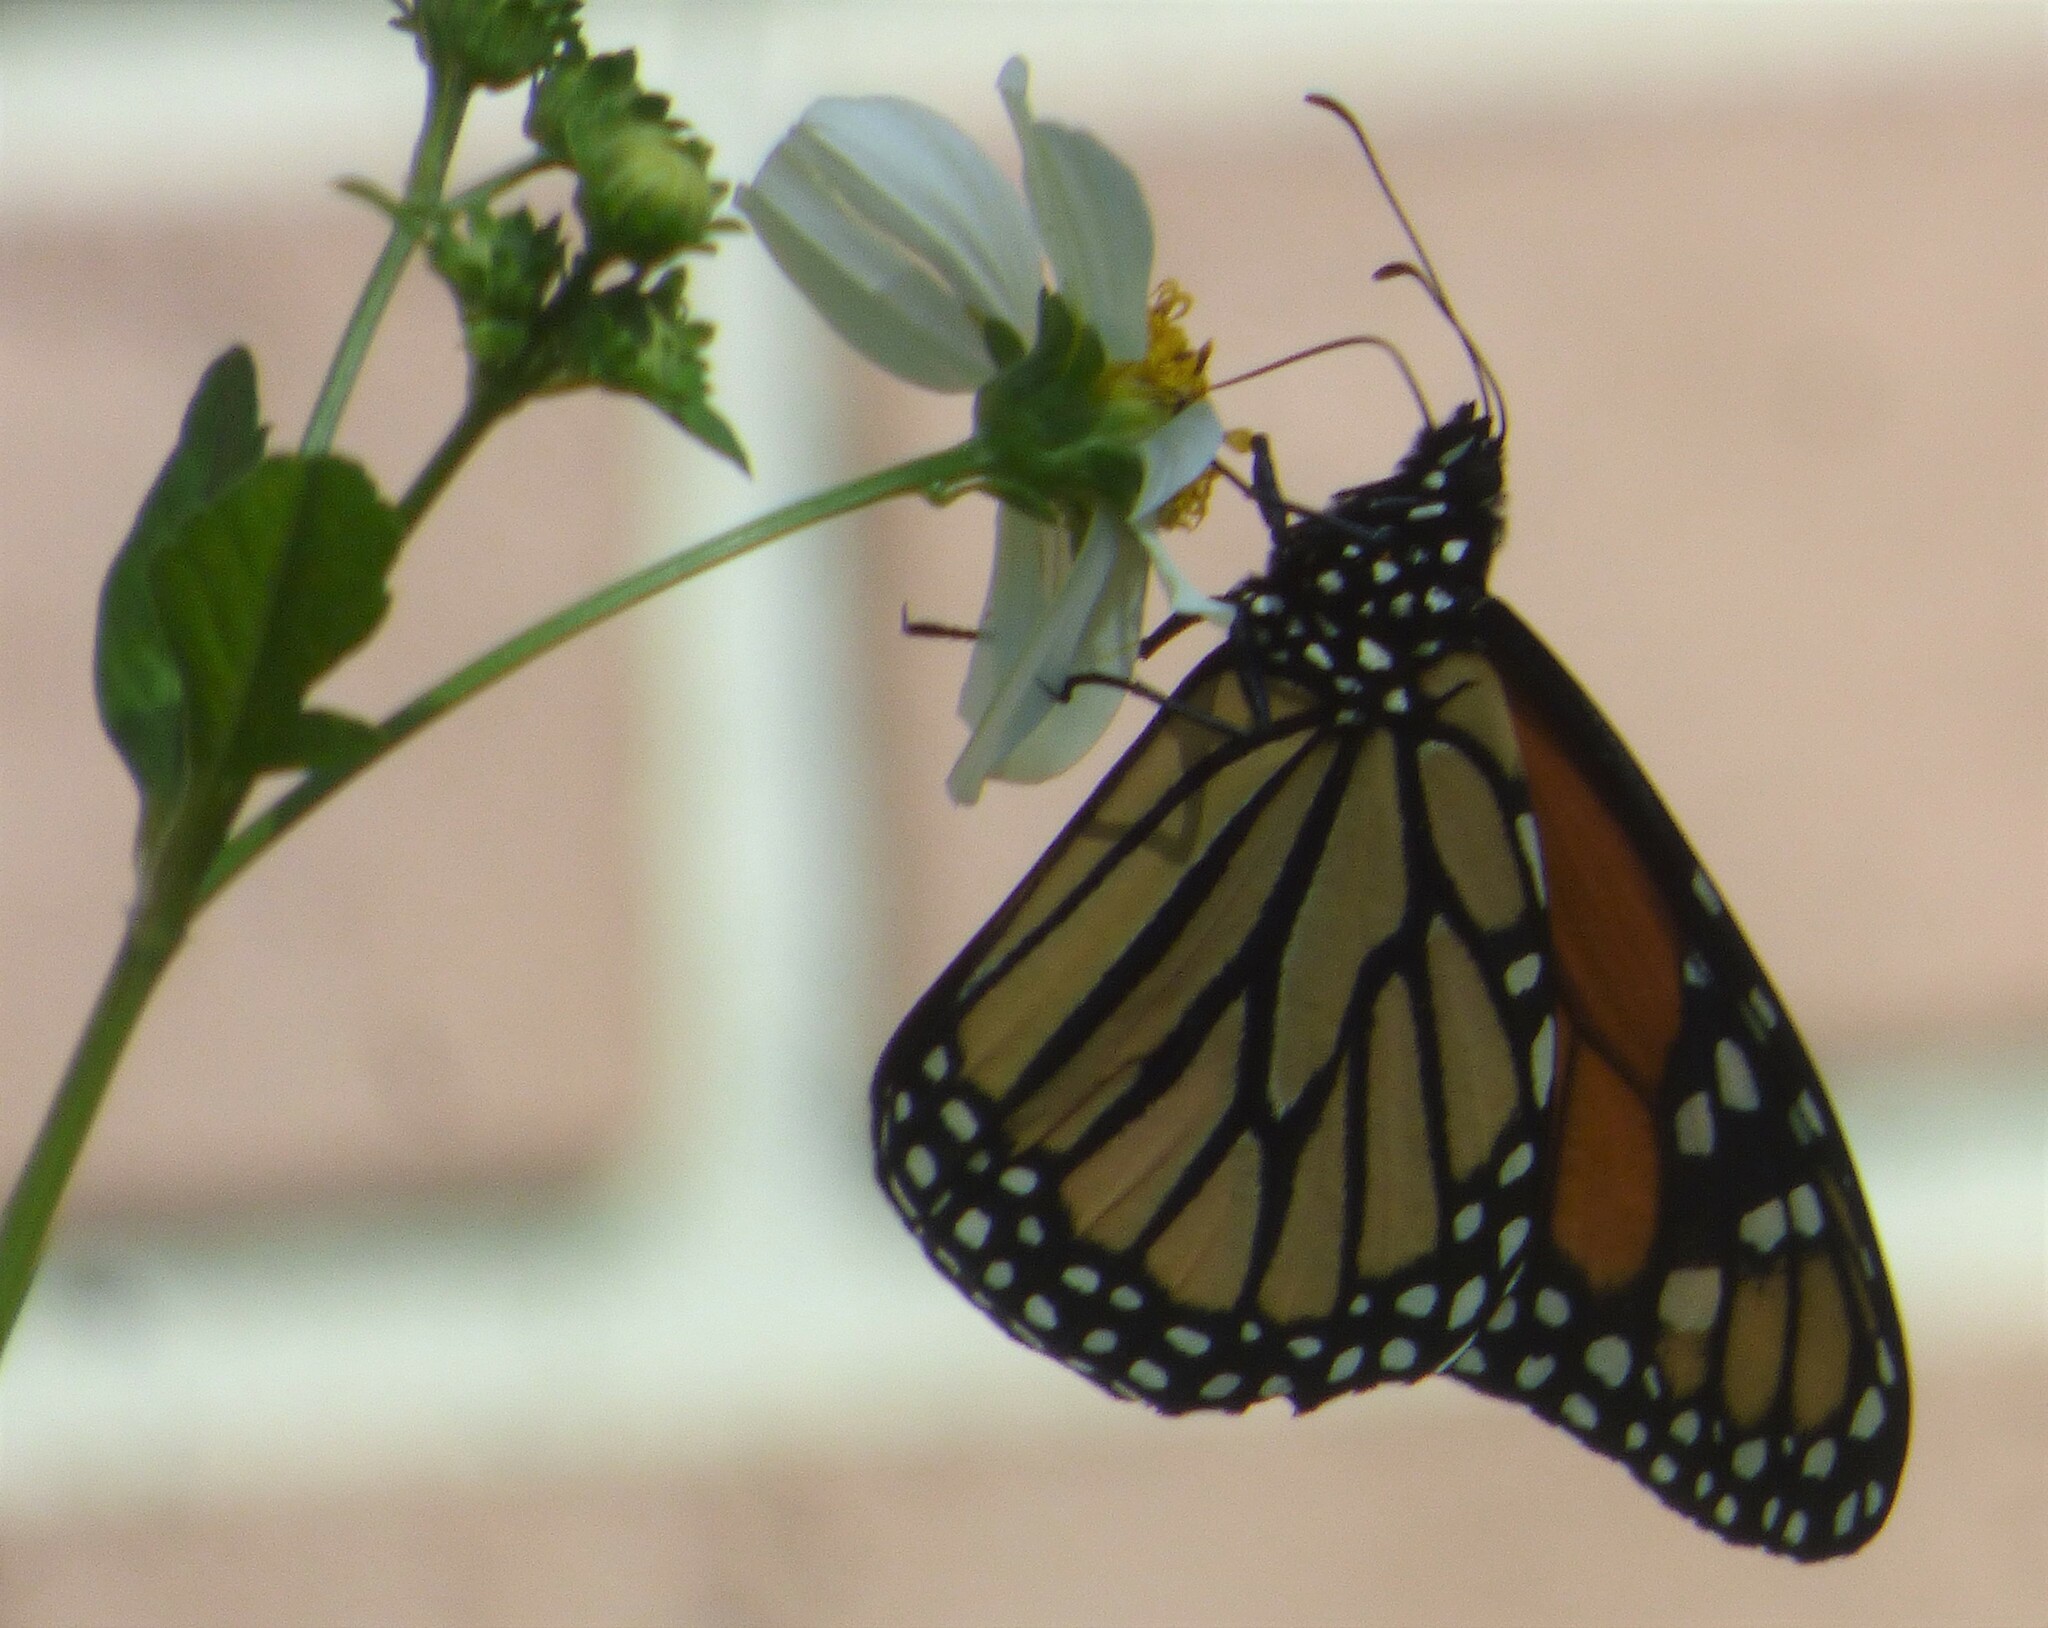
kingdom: Animalia
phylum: Arthropoda
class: Insecta
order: Lepidoptera
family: Nymphalidae
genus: Danaus
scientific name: Danaus plexippus
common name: Monarch
